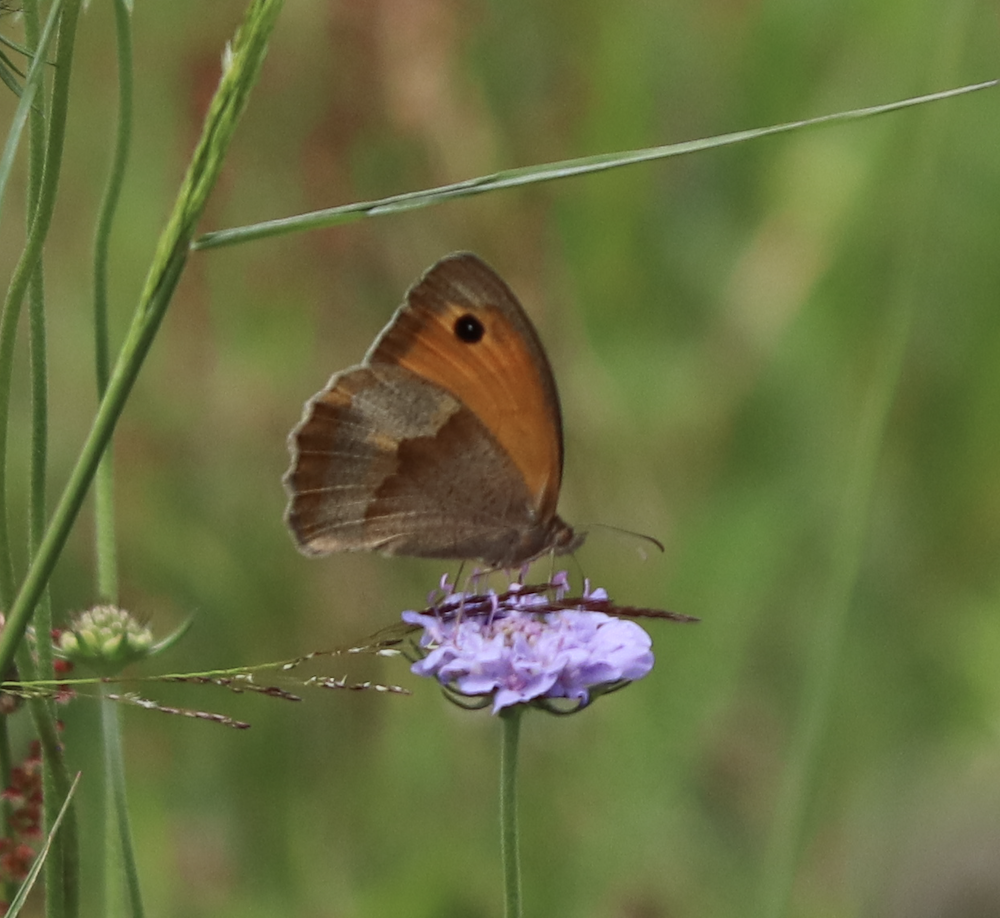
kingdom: Animalia
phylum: Arthropoda
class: Insecta
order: Lepidoptera
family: Nymphalidae
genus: Maniola
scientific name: Maniola jurtina
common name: Meadow brown
